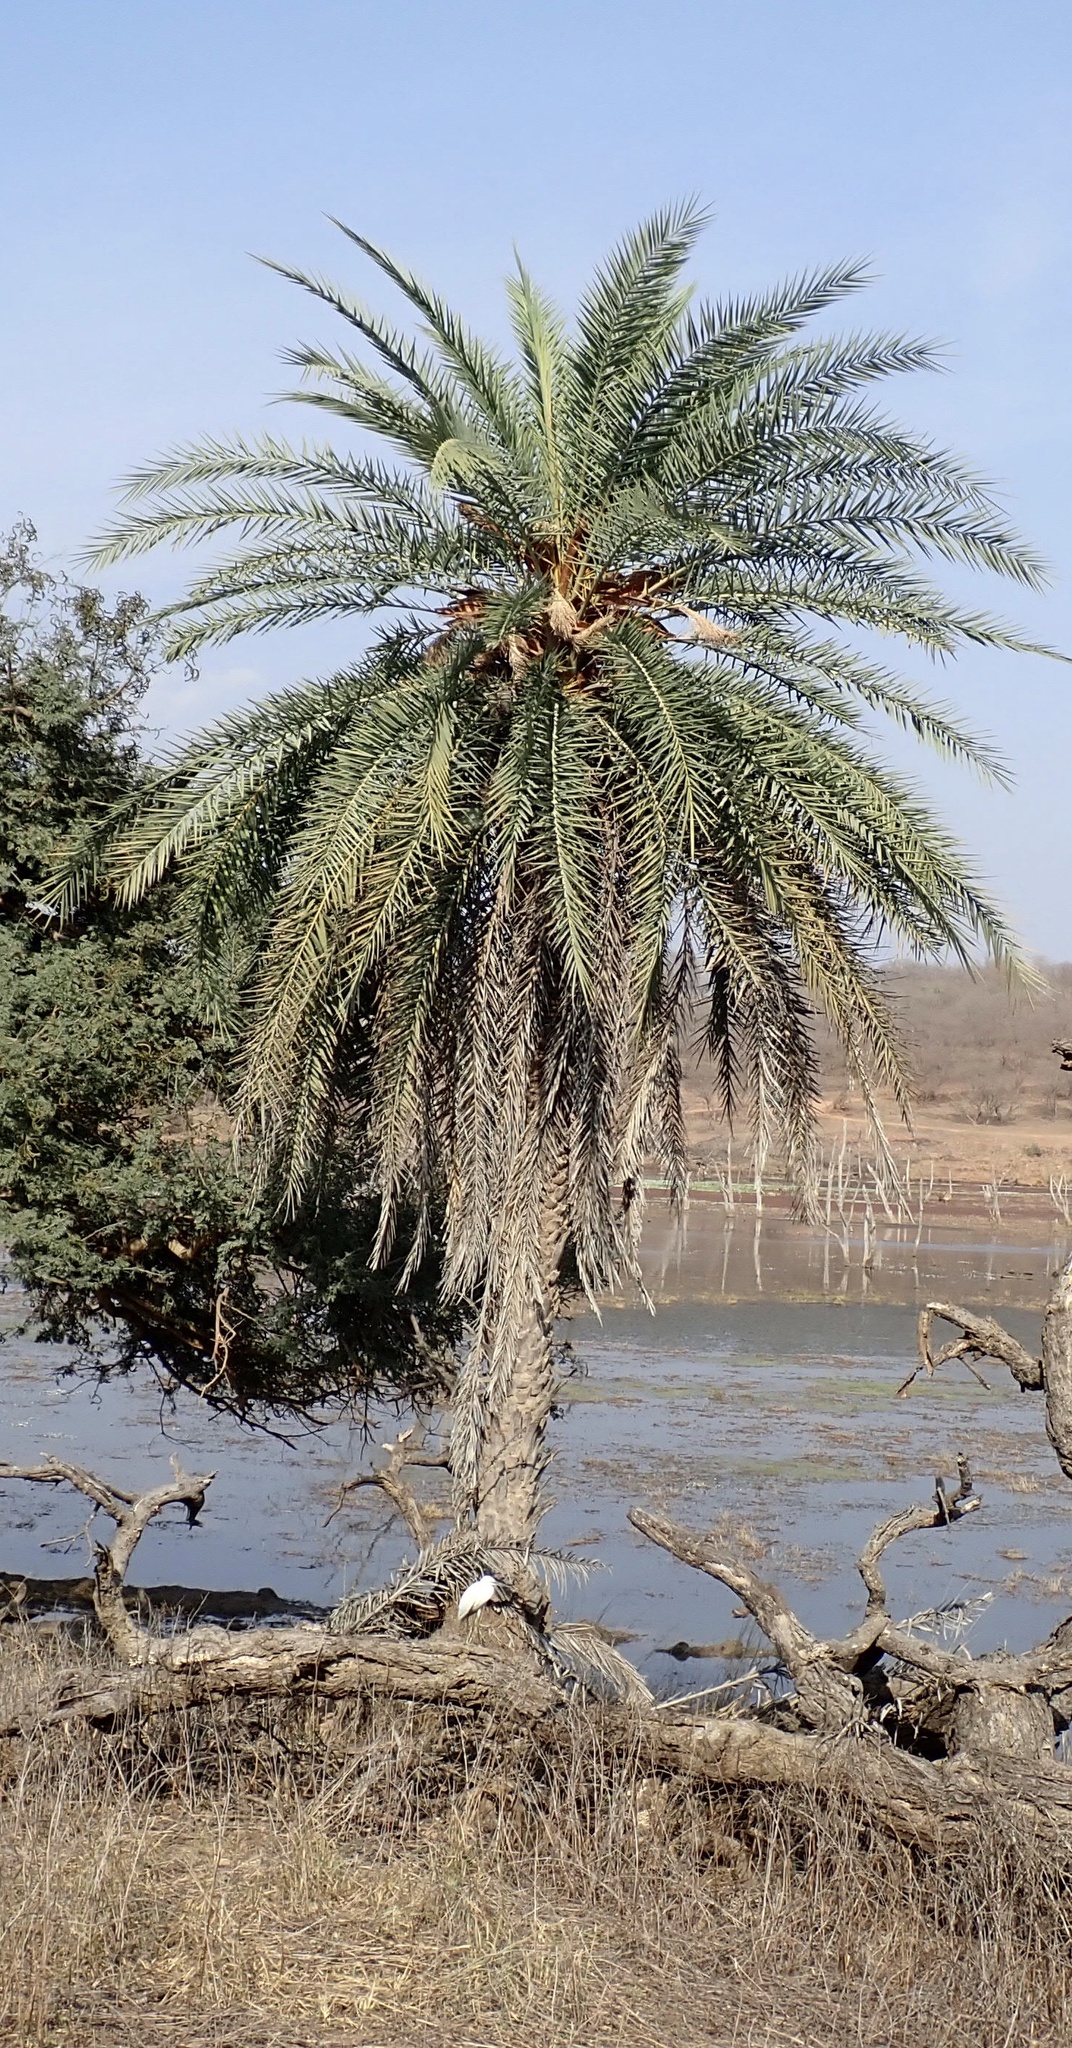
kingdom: Plantae
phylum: Tracheophyta
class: Liliopsida
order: Arecales
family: Arecaceae
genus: Phoenix
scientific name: Phoenix sylvestris
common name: Wild date palm
